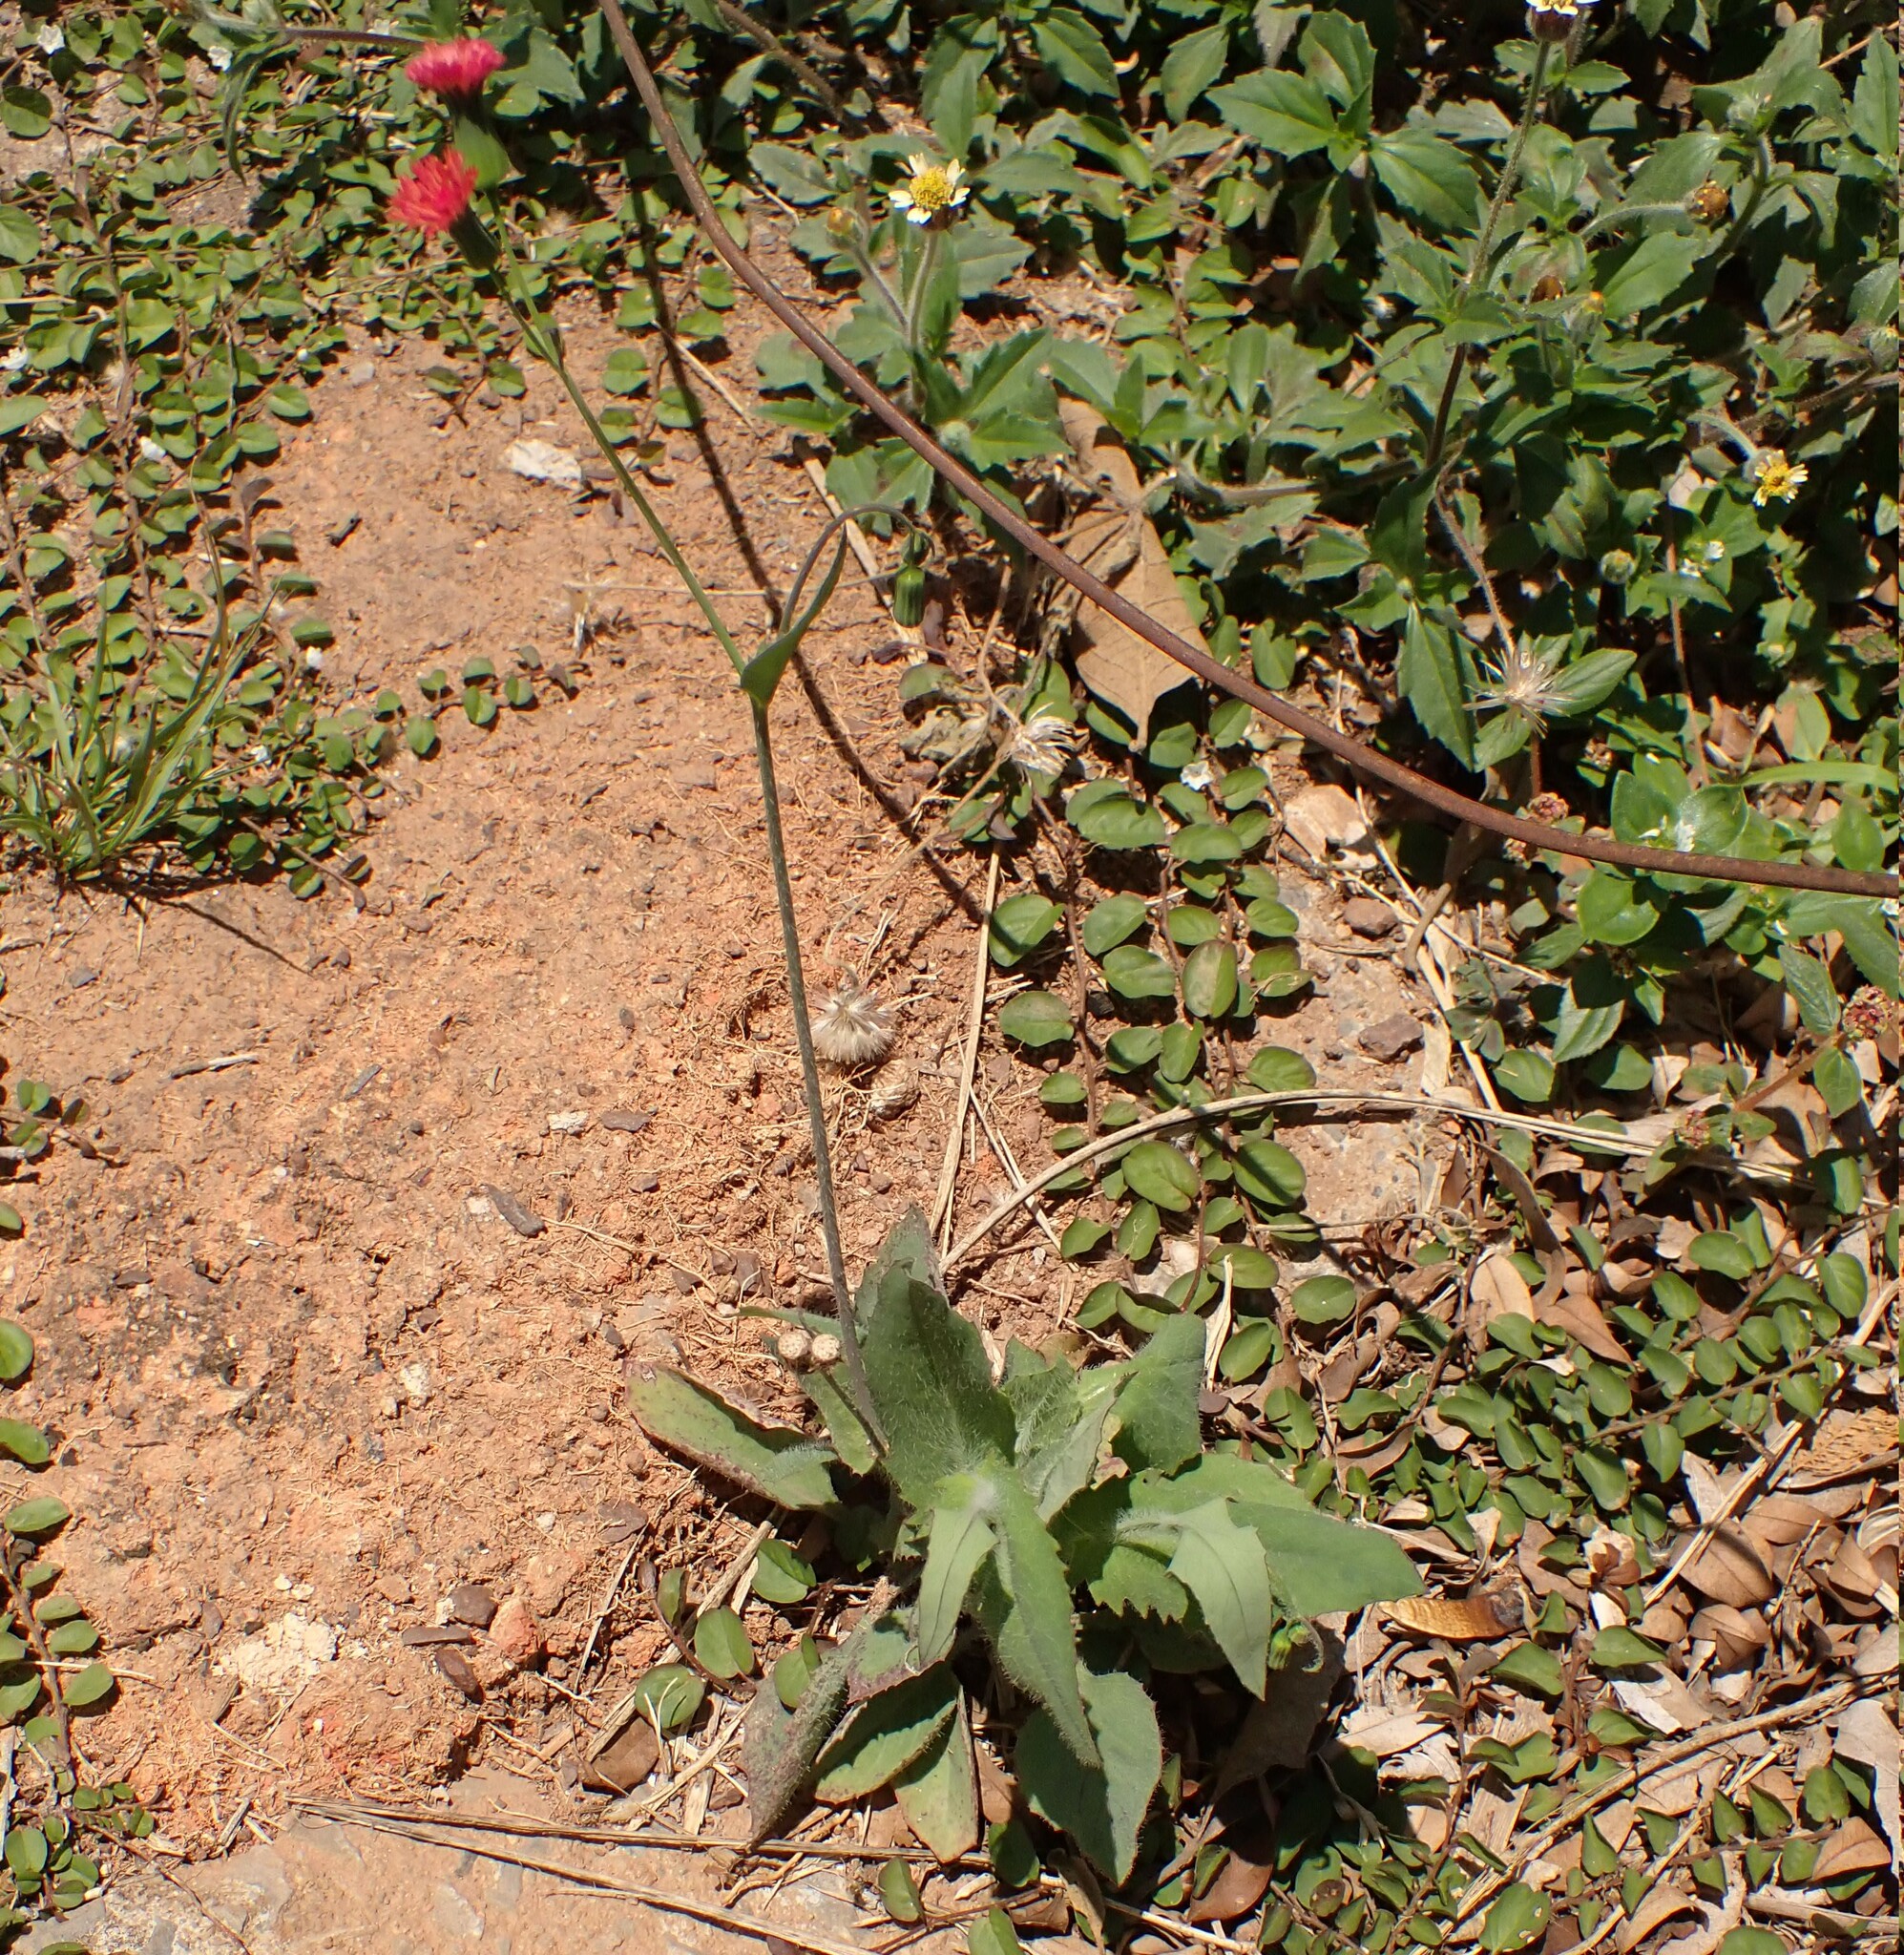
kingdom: Plantae
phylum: Tracheophyta
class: Magnoliopsida
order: Asterales
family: Asteraceae
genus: Emilia
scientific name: Emilia fosbergii
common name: Florida tasselflower
